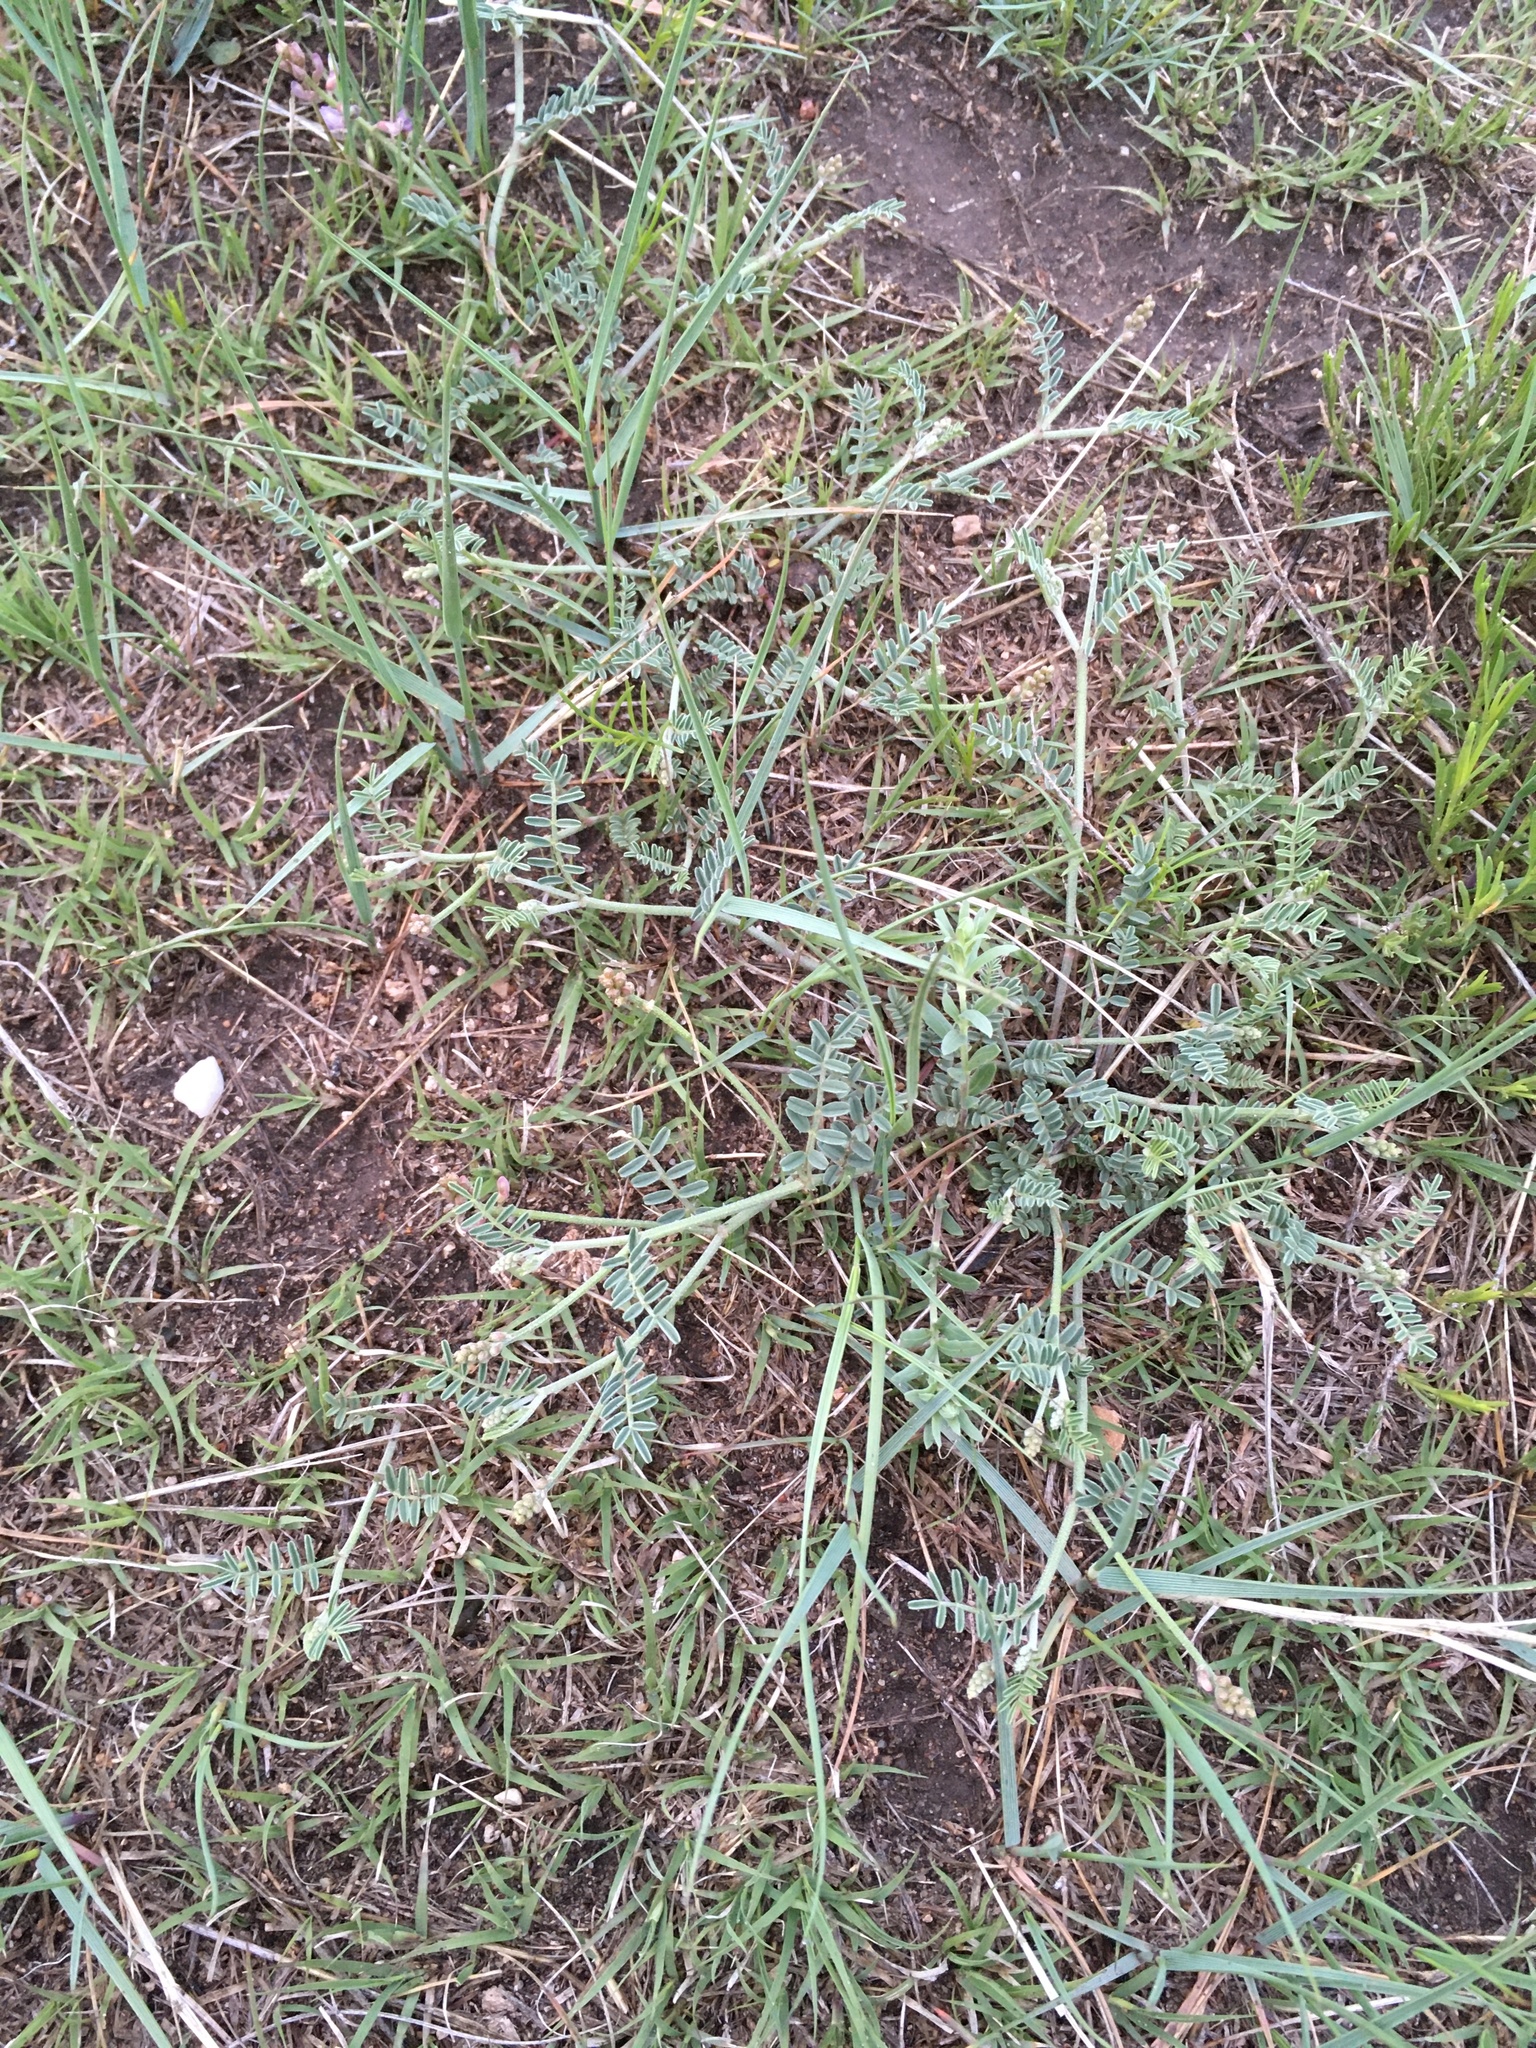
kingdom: Plantae
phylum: Tracheophyta
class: Magnoliopsida
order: Fabales
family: Fabaceae
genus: Astragalus
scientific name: Astragalus gracilis
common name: Slender milk-vetch
